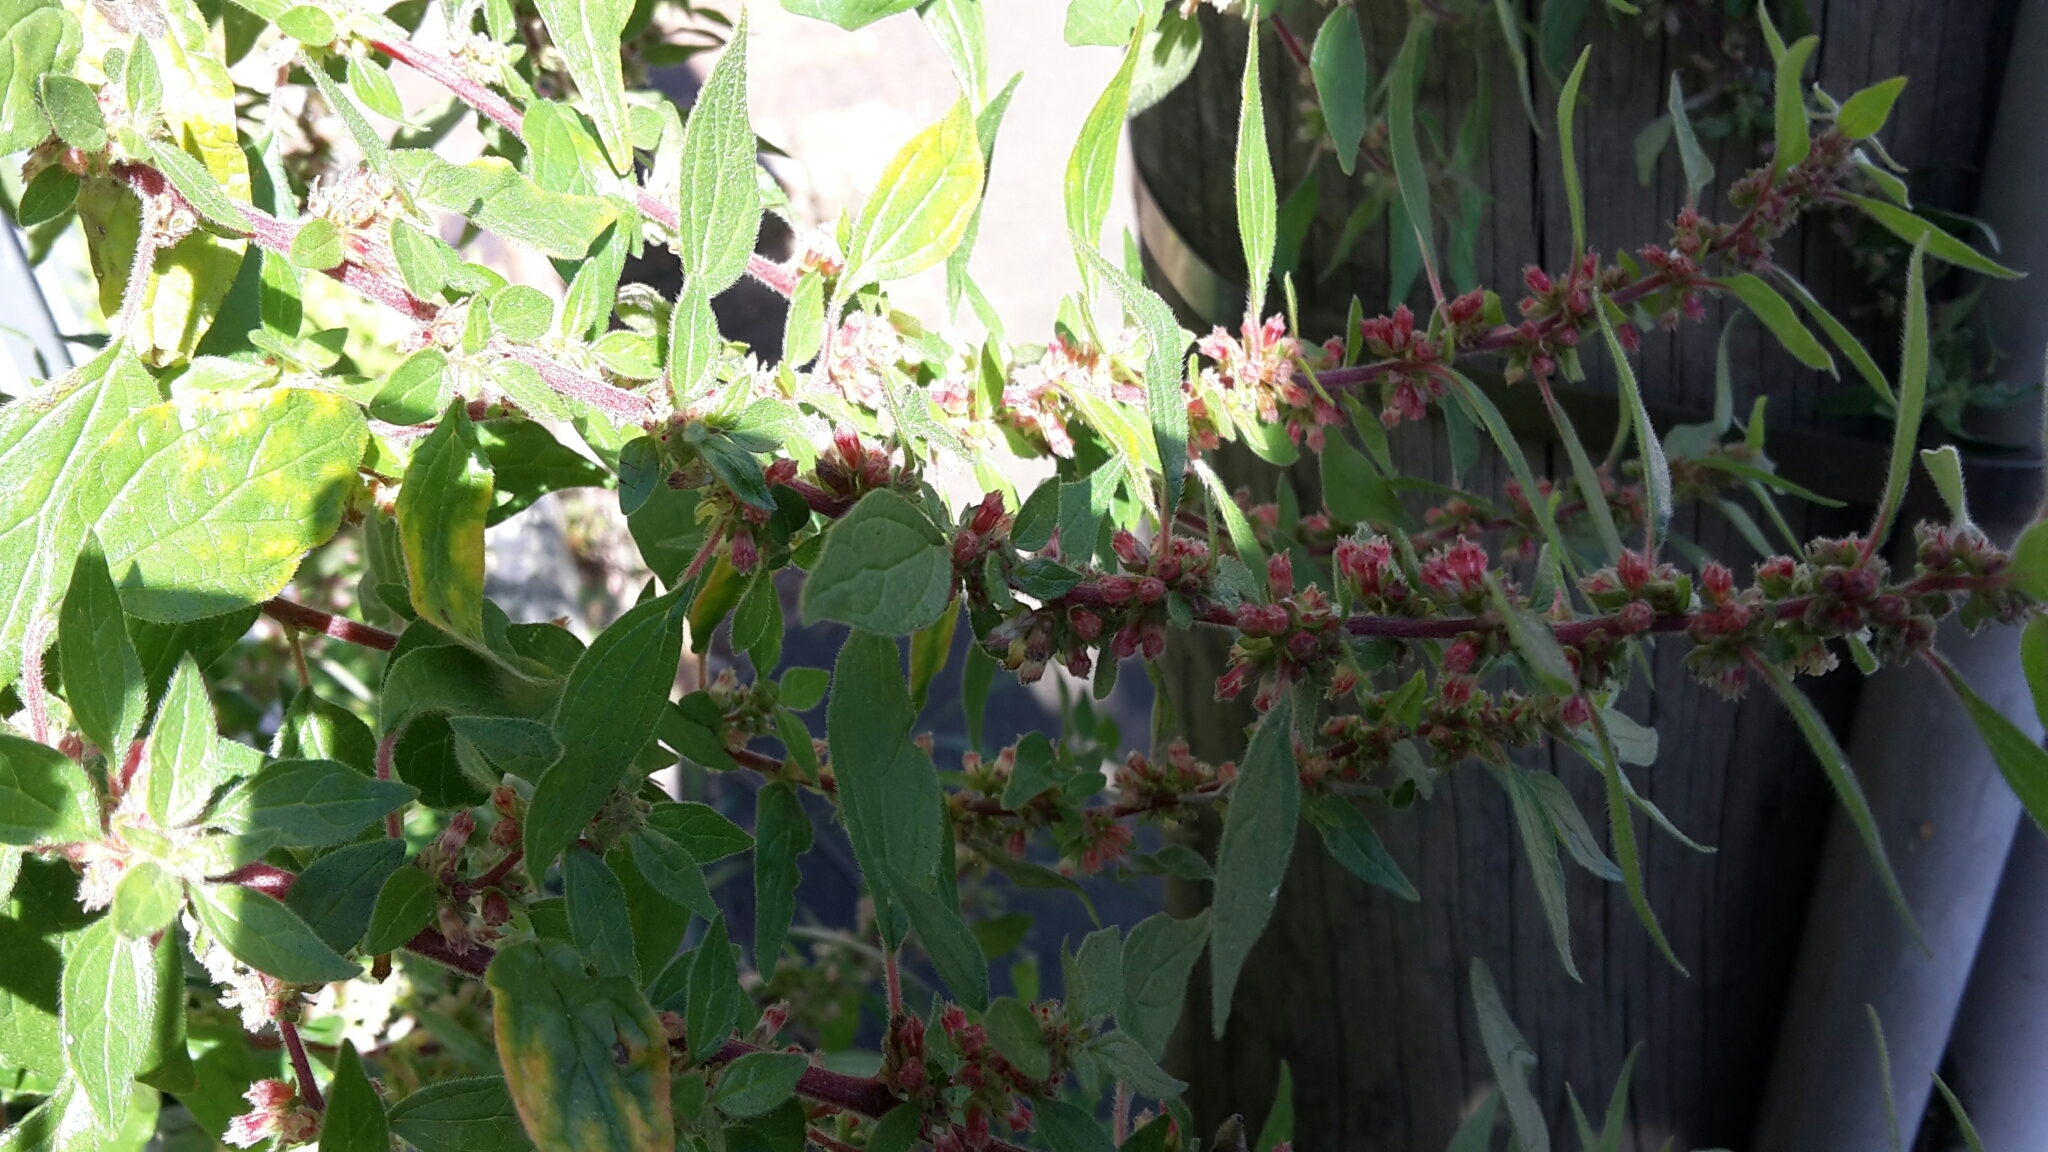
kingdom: Plantae
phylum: Tracheophyta
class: Magnoliopsida
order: Rosales
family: Urticaceae
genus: Parietaria
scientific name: Parietaria judaica
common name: Pellitory-of-the-wall
